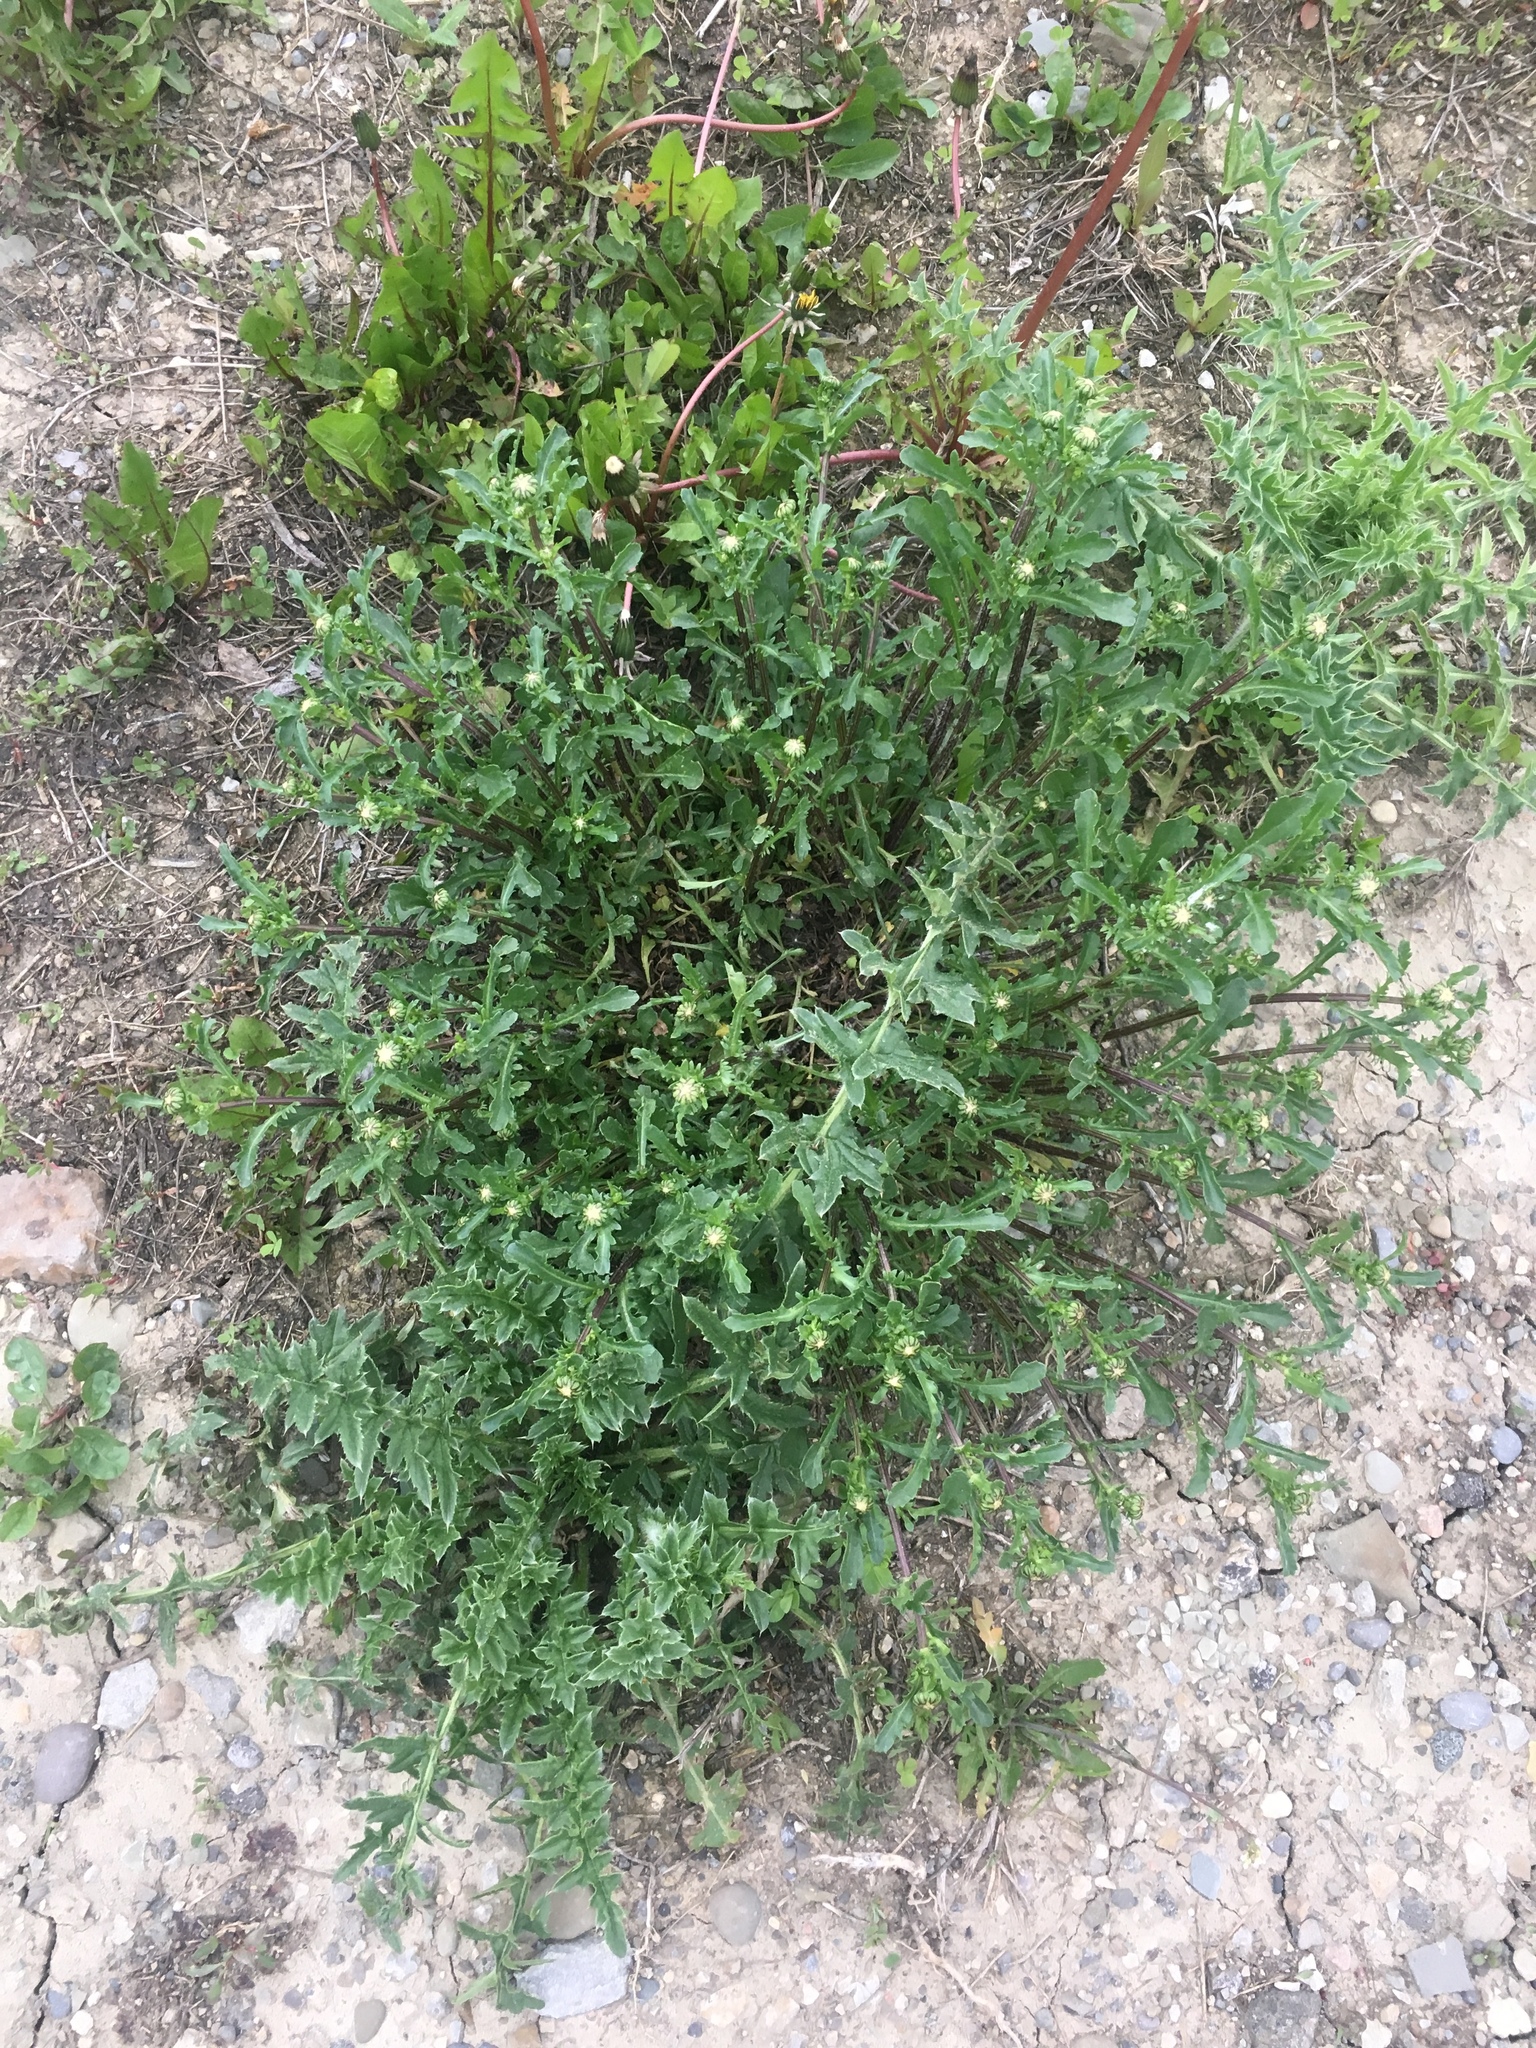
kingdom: Plantae
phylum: Tracheophyta
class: Magnoliopsida
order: Asterales
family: Asteraceae
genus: Leucanthemum
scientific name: Leucanthemum vulgare
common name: Oxeye daisy
